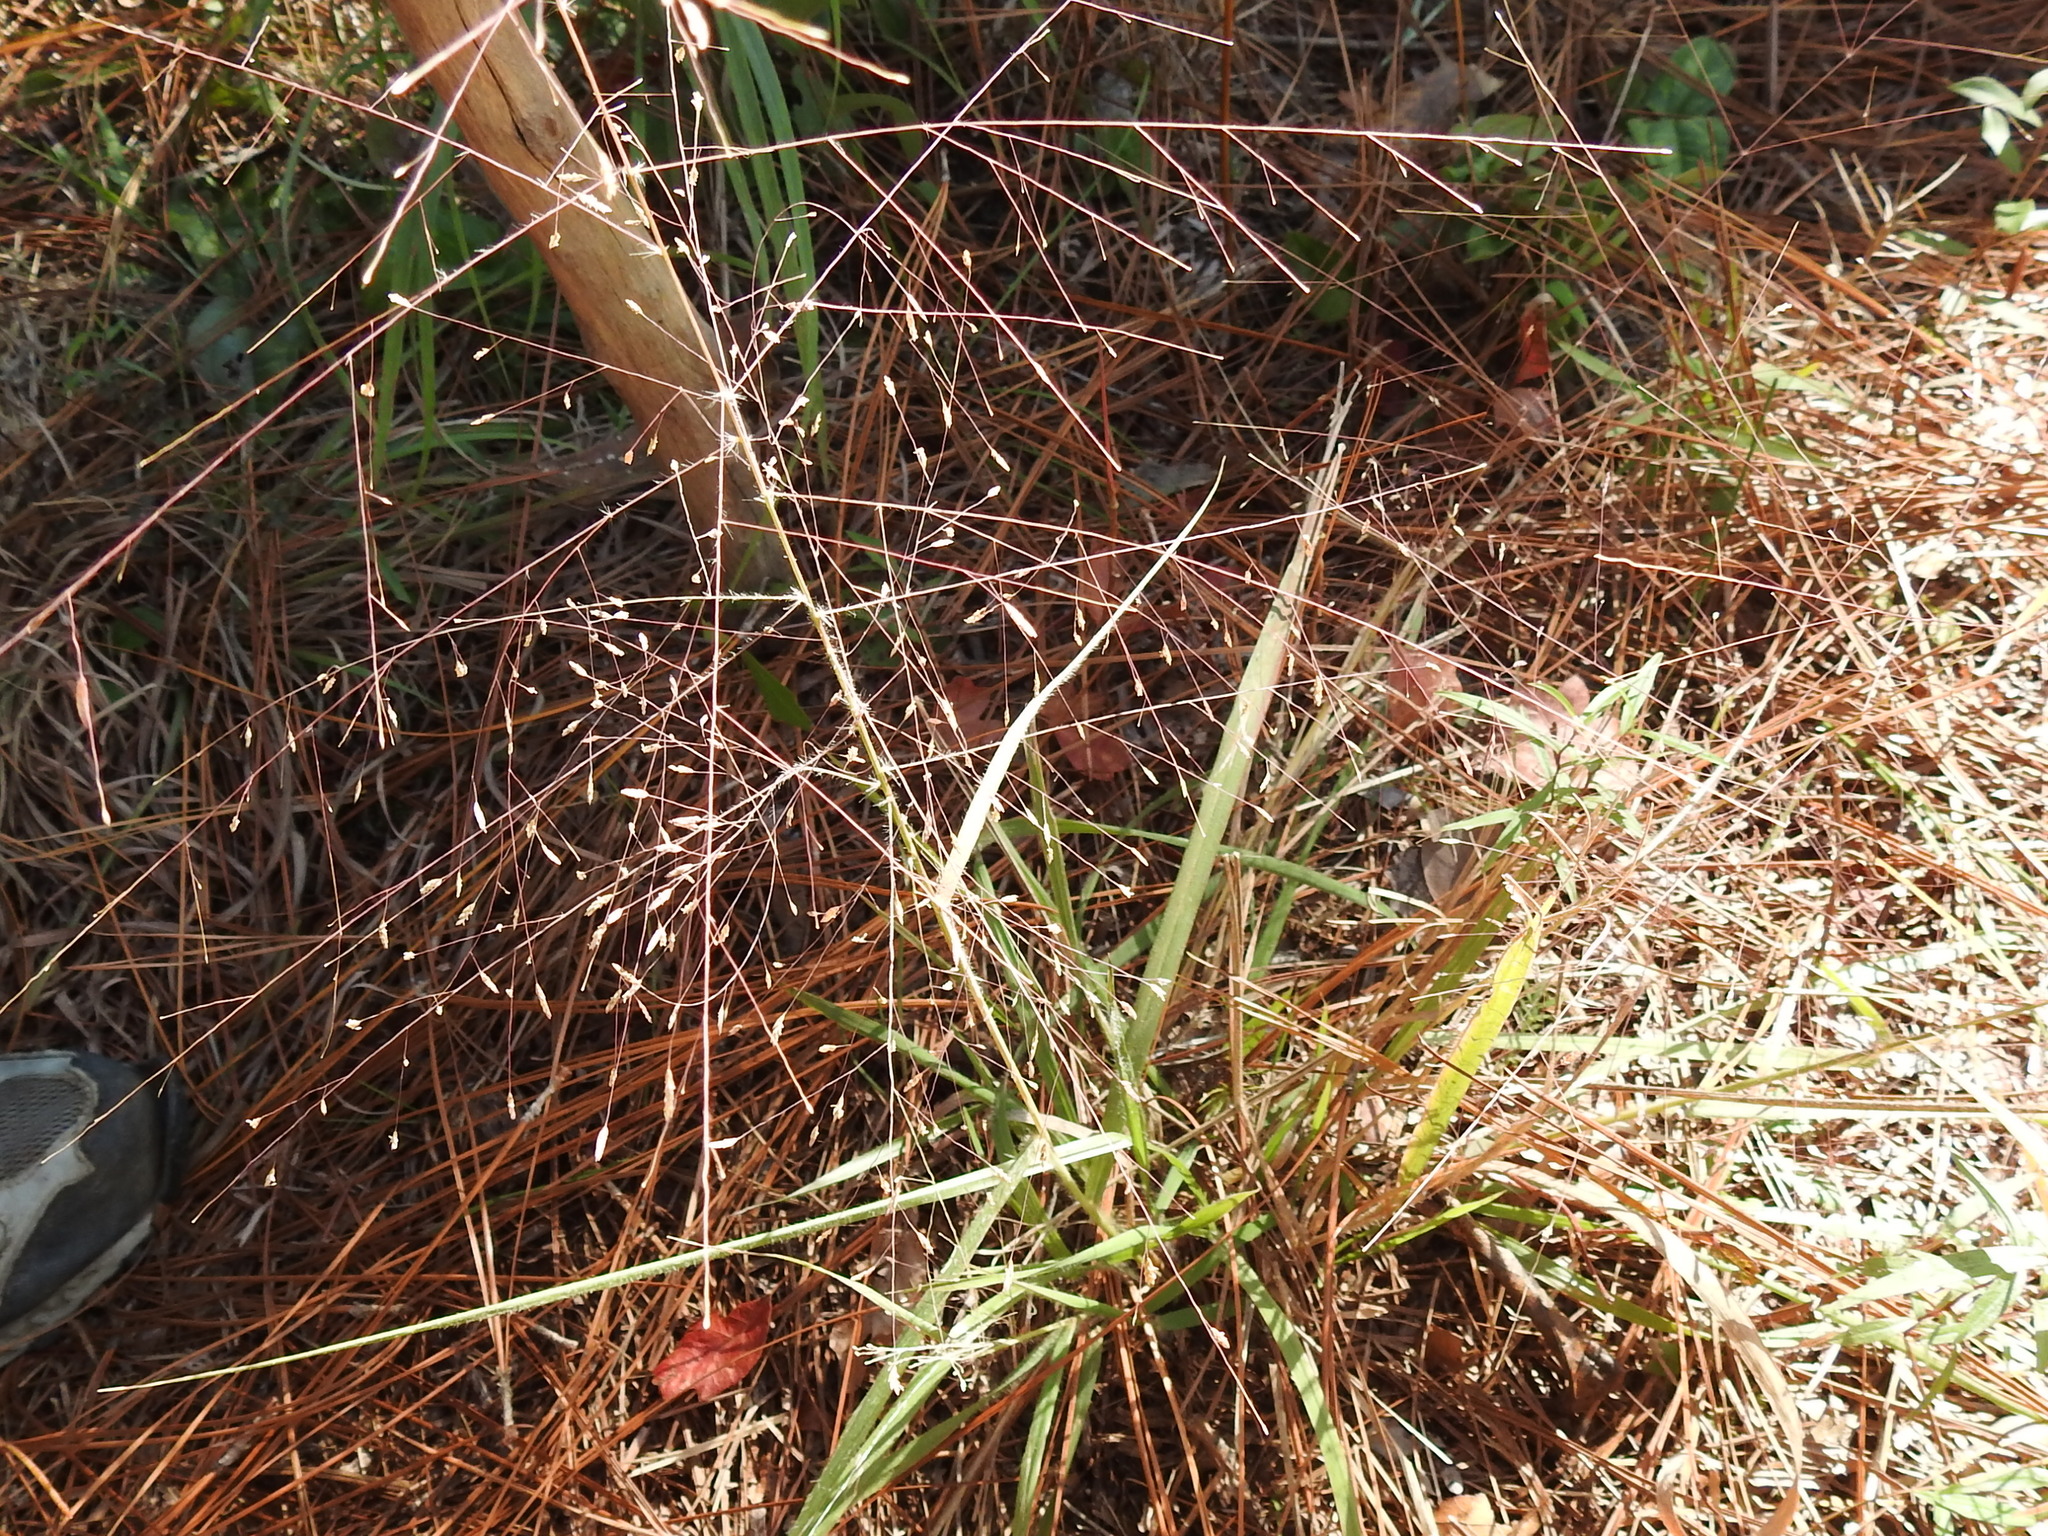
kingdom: Plantae
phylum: Tracheophyta
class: Liliopsida
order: Poales
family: Poaceae
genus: Eragrostis
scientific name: Eragrostis spectabilis
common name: Petticoat-climber
